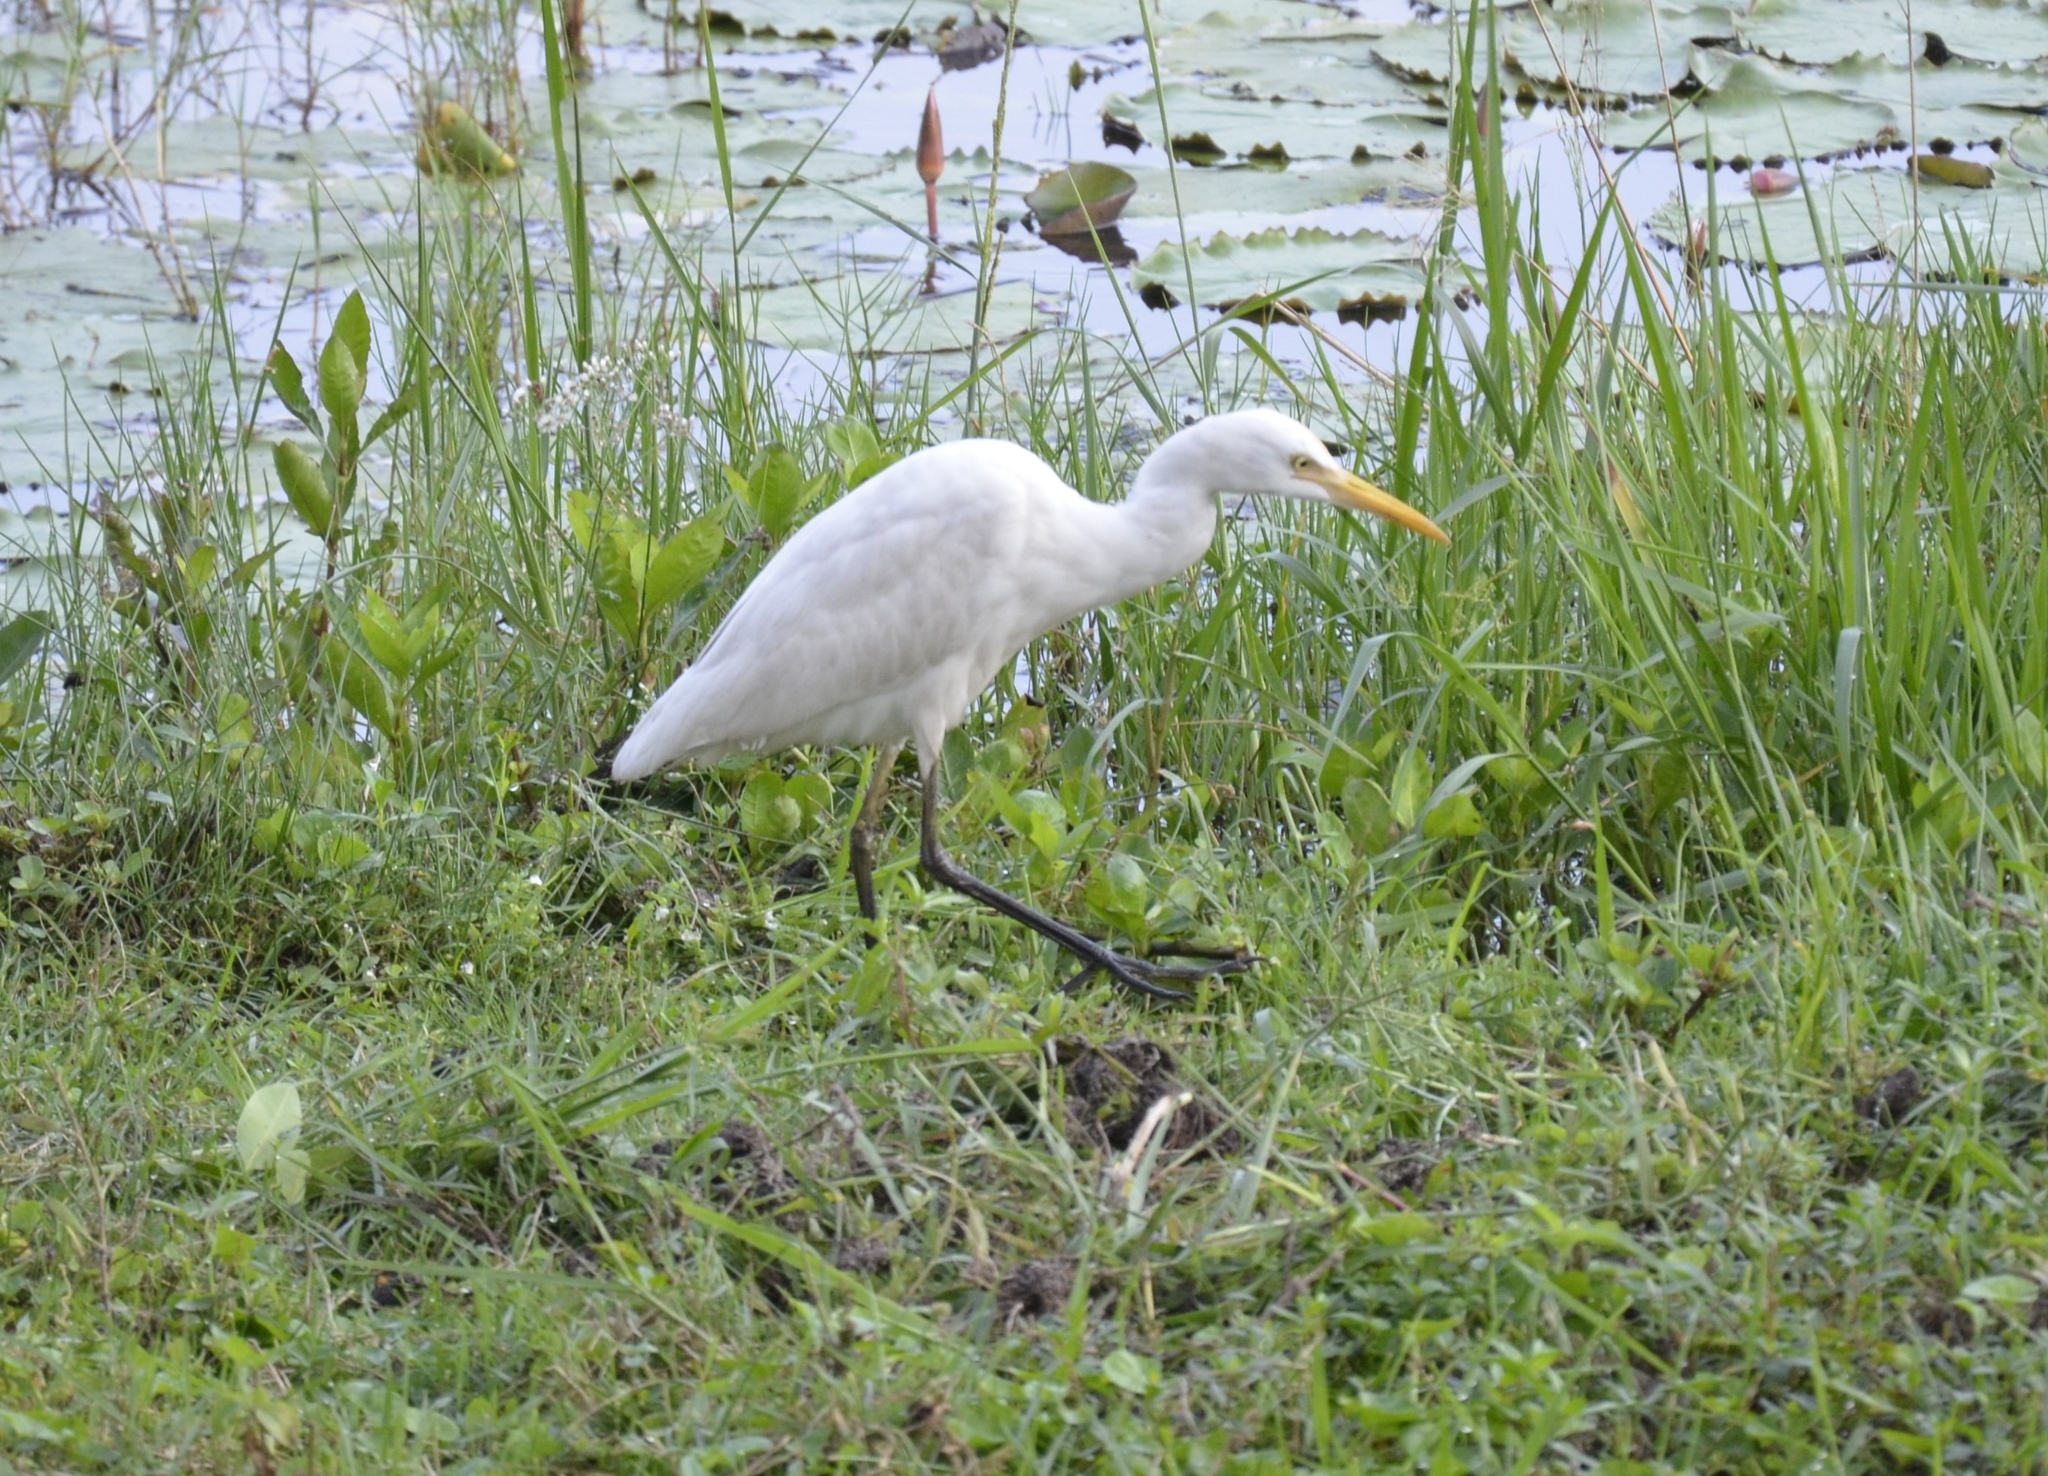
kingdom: Animalia
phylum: Chordata
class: Aves
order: Pelecaniformes
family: Ardeidae
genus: Bubulcus
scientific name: Bubulcus coromandus
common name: Eastern cattle egret
